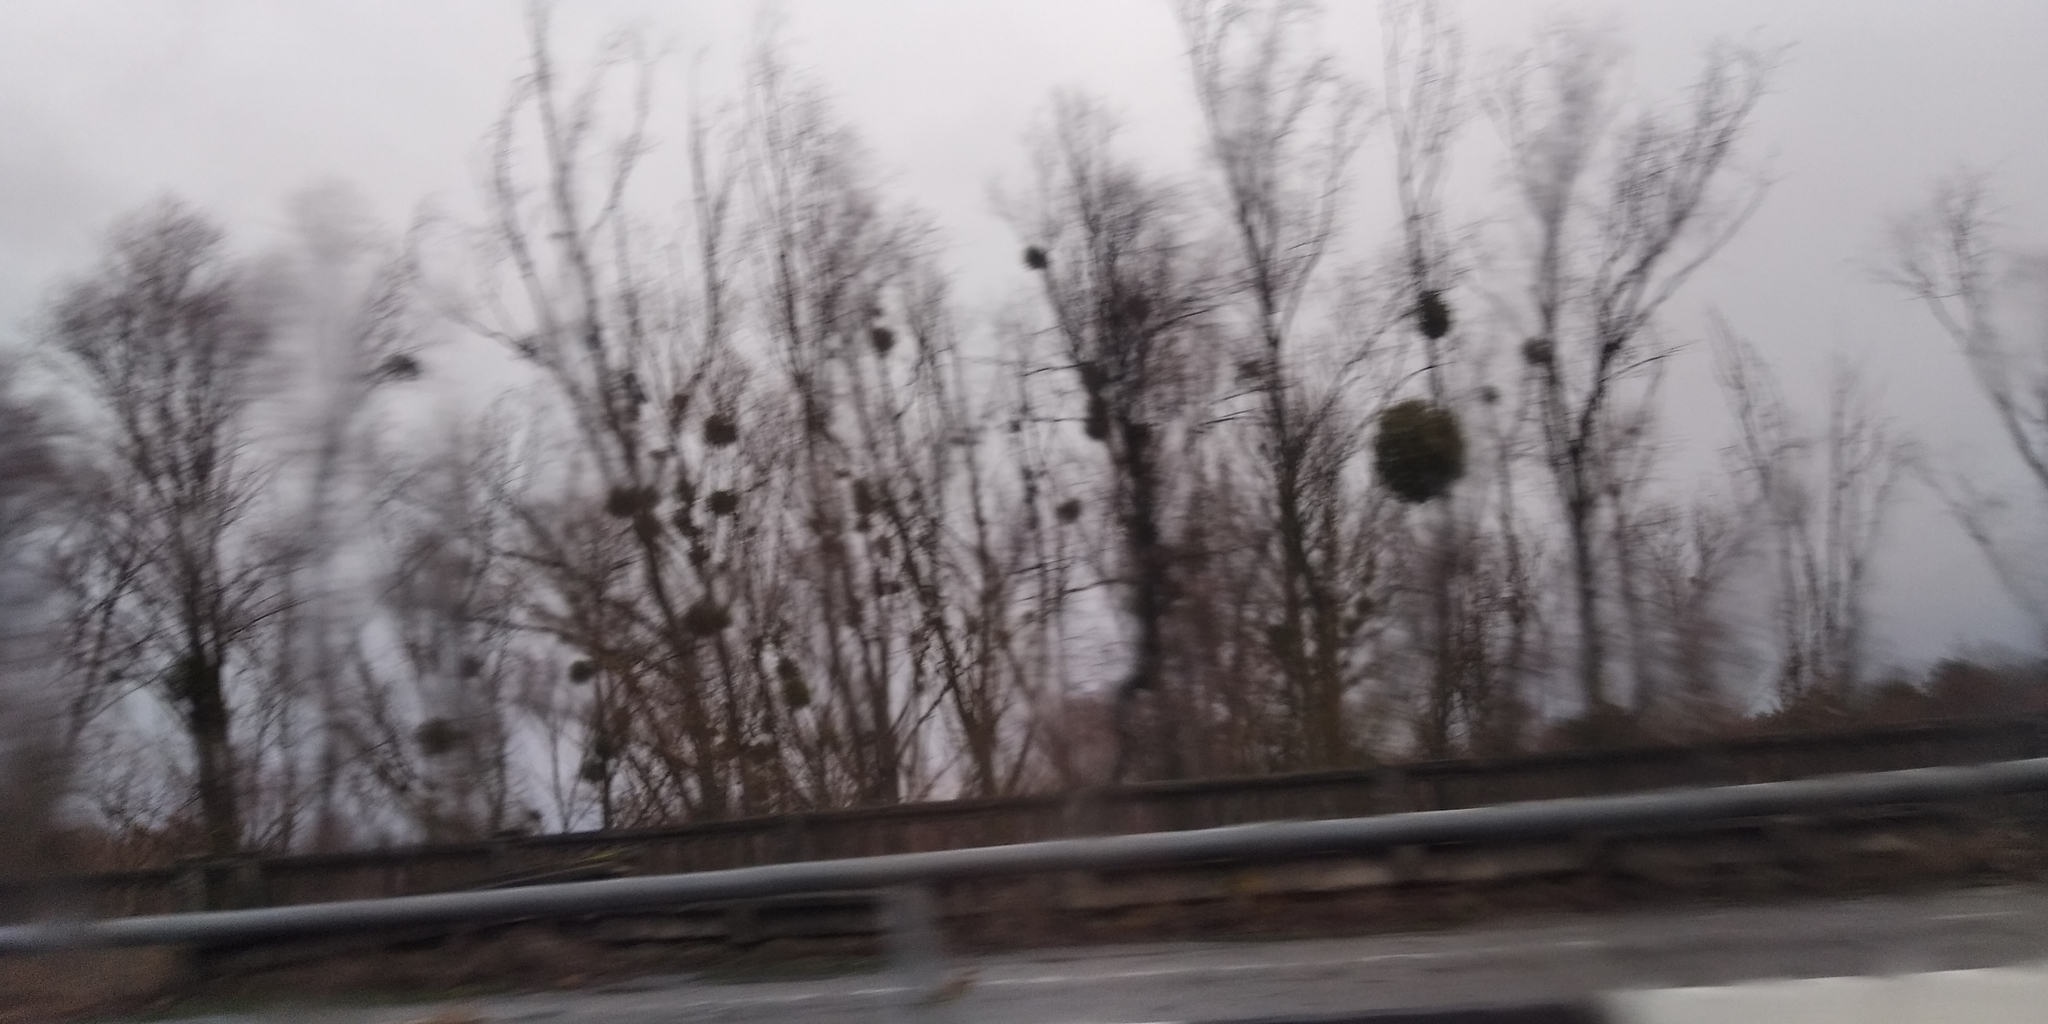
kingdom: Plantae
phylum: Tracheophyta
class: Magnoliopsida
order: Santalales
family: Viscaceae
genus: Viscum
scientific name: Viscum album
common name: Mistletoe
